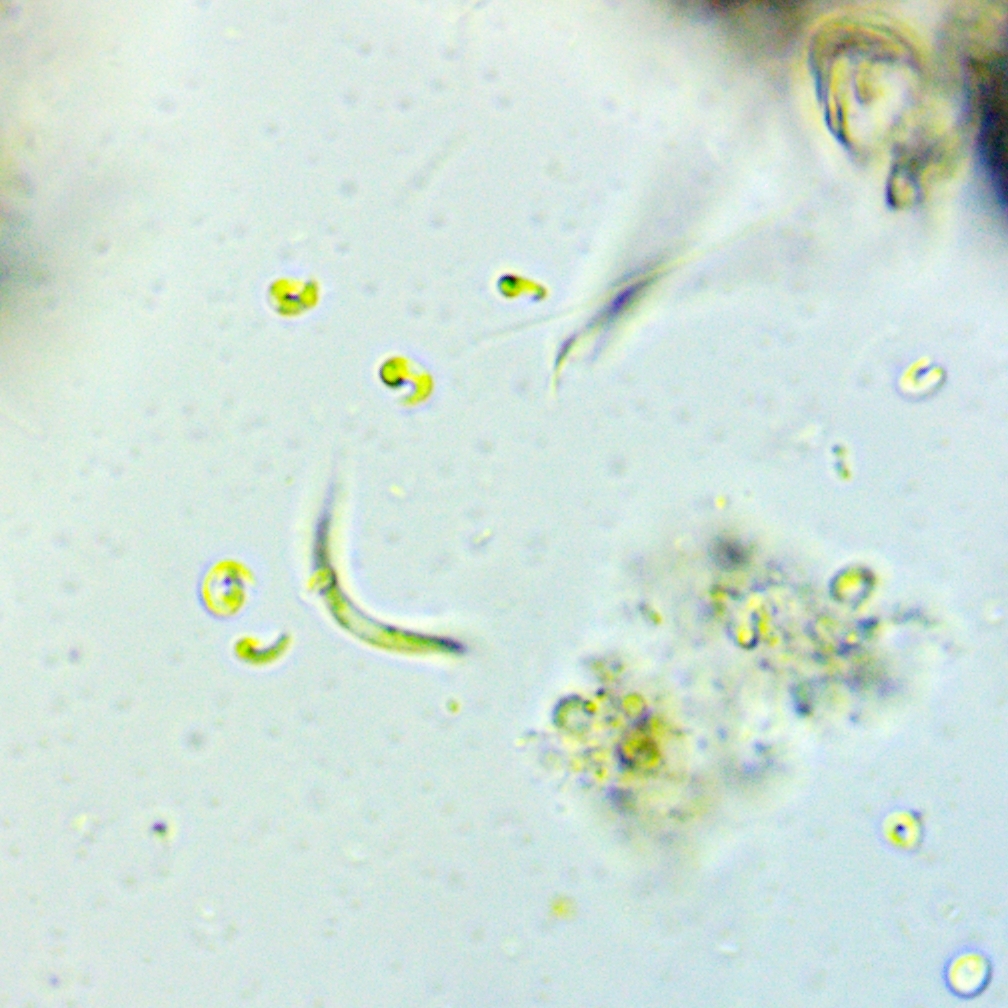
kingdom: Plantae
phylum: Chlorophyta
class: Chlorophyceae
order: Sphaeropleales
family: Selenastraceae
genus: Monoraphidium
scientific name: Monoraphidium contortum
